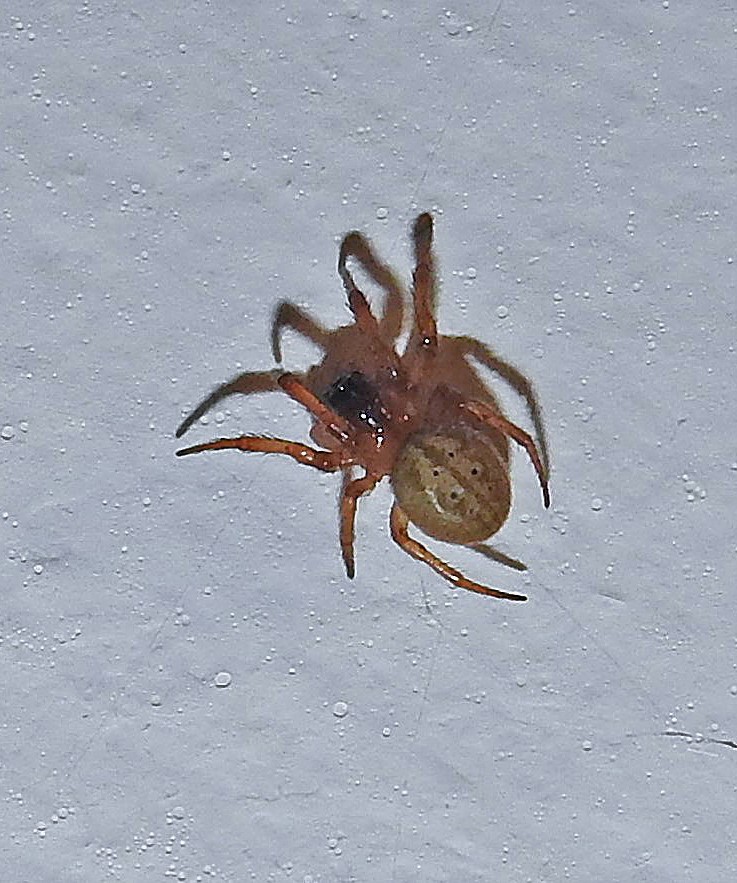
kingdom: Animalia
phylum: Arthropoda
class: Arachnida
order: Araneae
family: Araneidae
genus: Metazygia
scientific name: Metazygia
